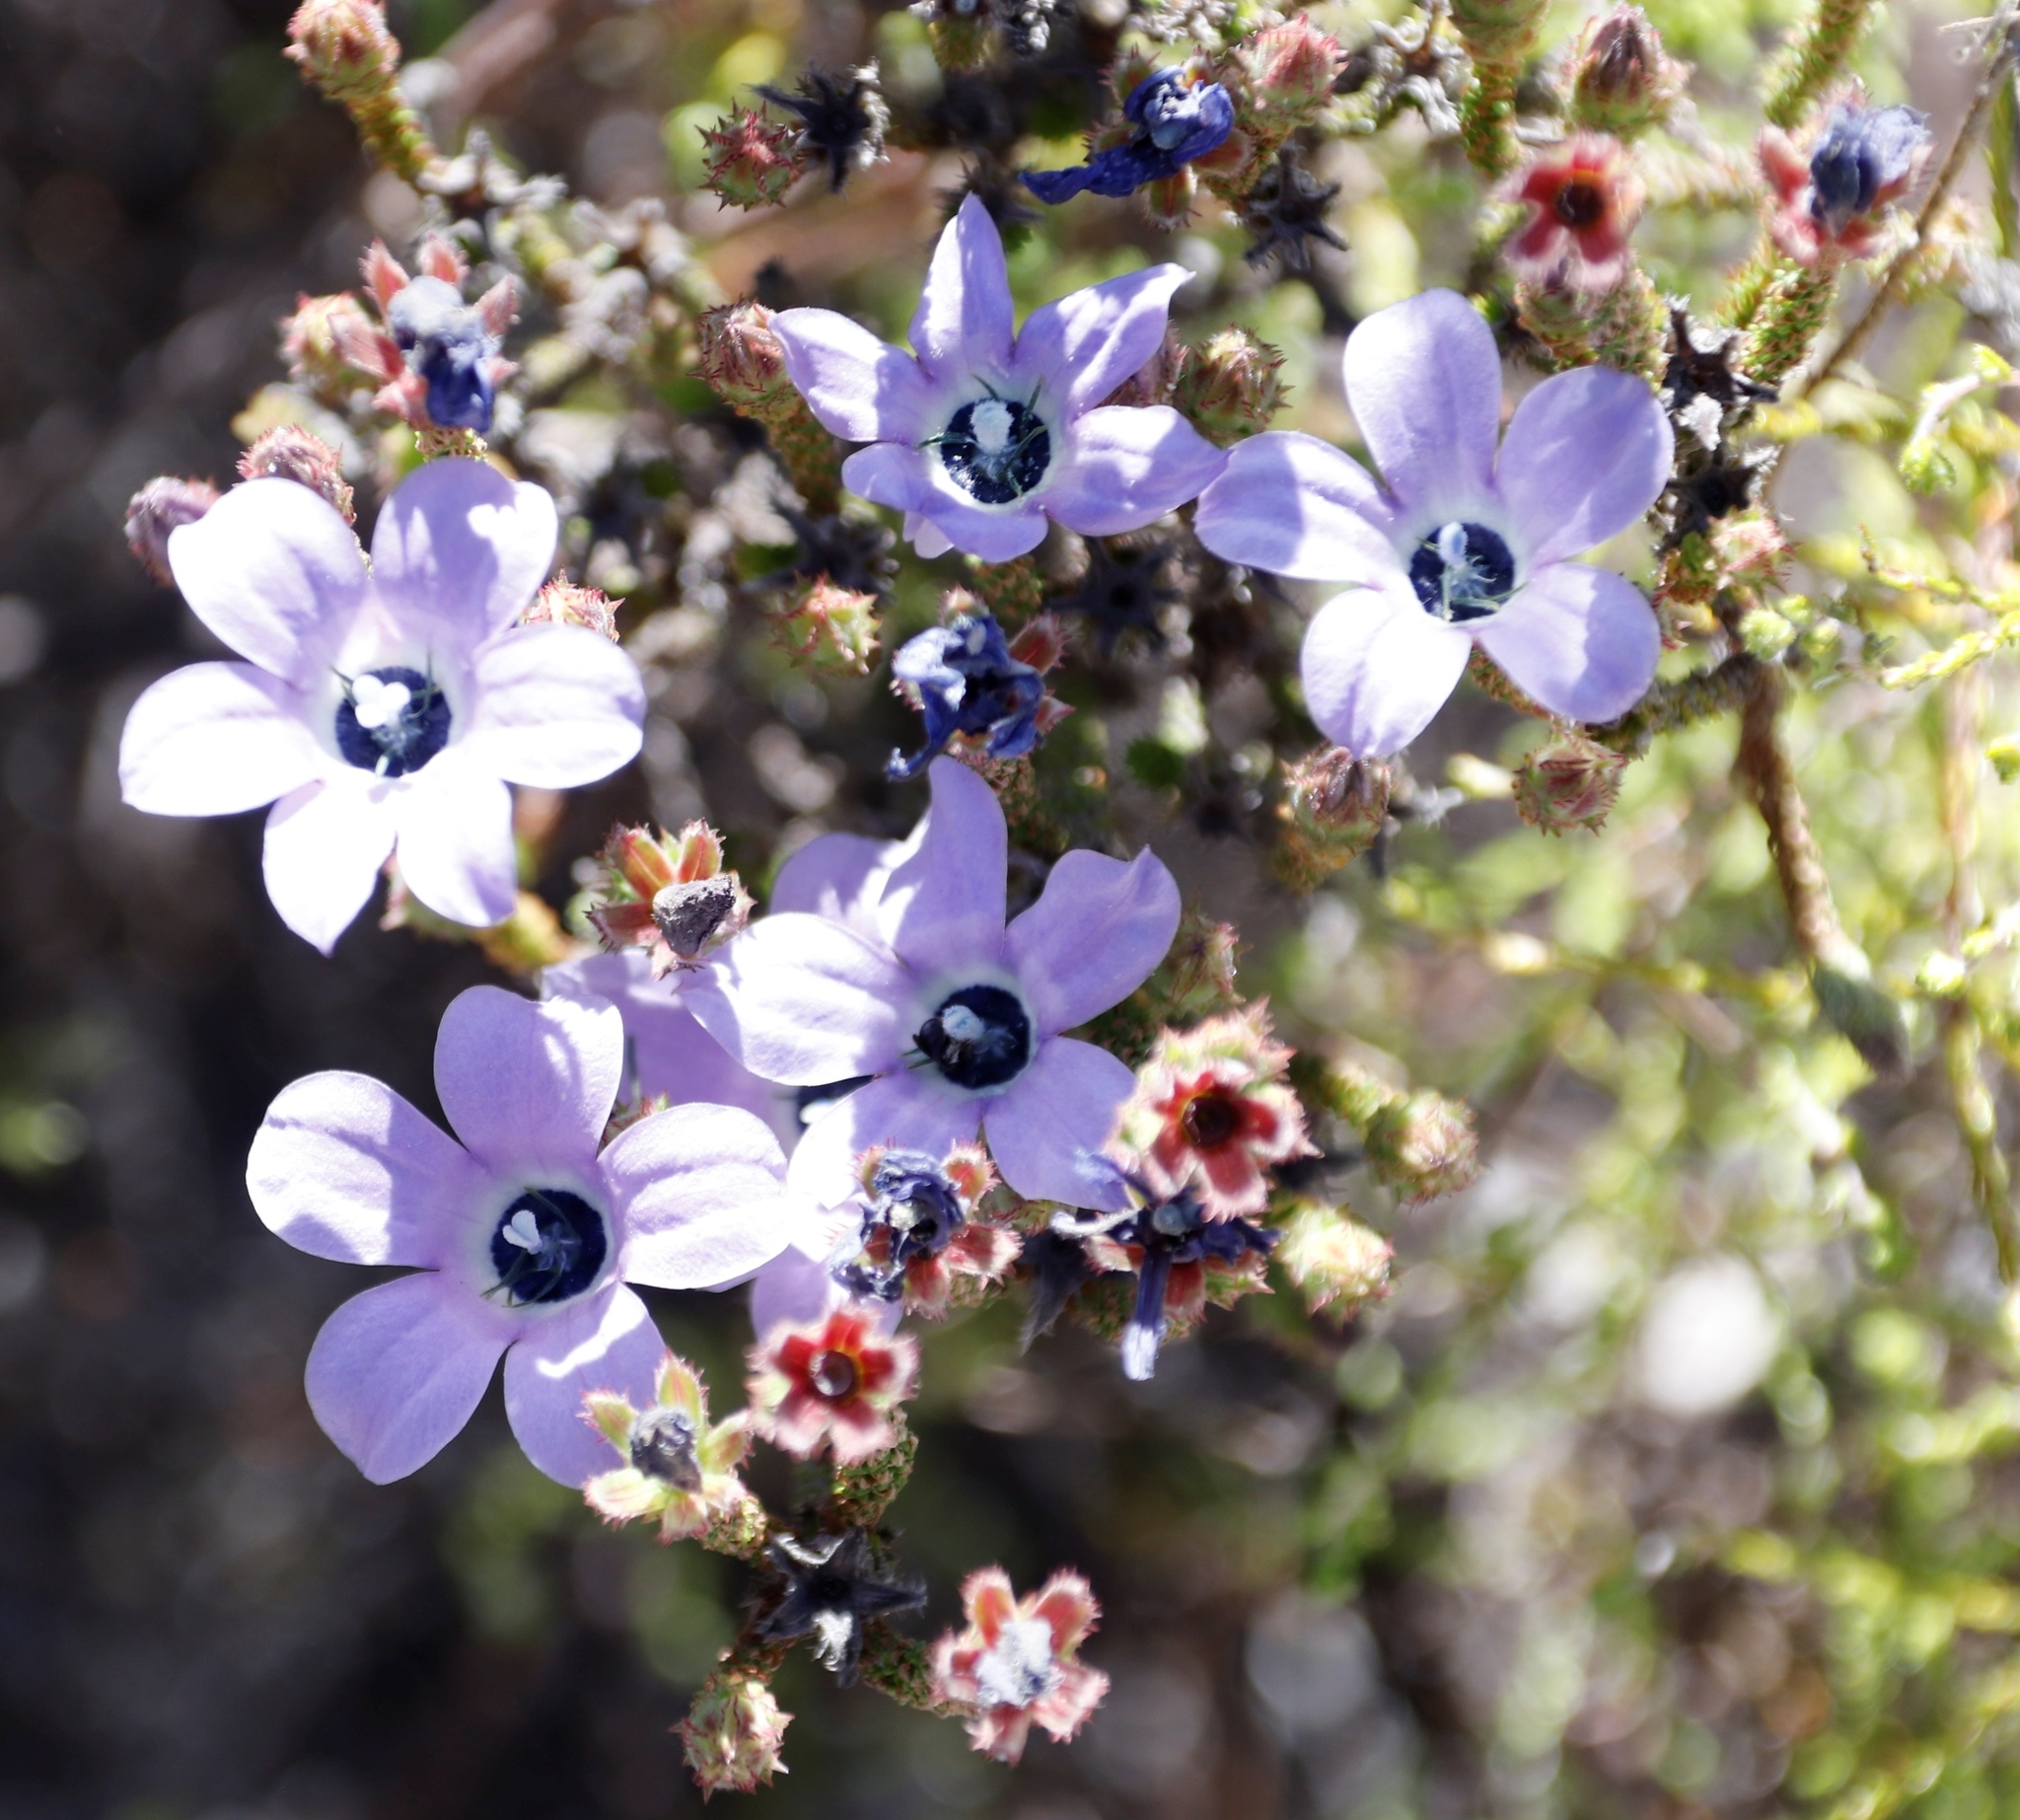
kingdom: Plantae
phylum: Tracheophyta
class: Magnoliopsida
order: Asterales
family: Campanulaceae
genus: Roella
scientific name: Roella triflora
